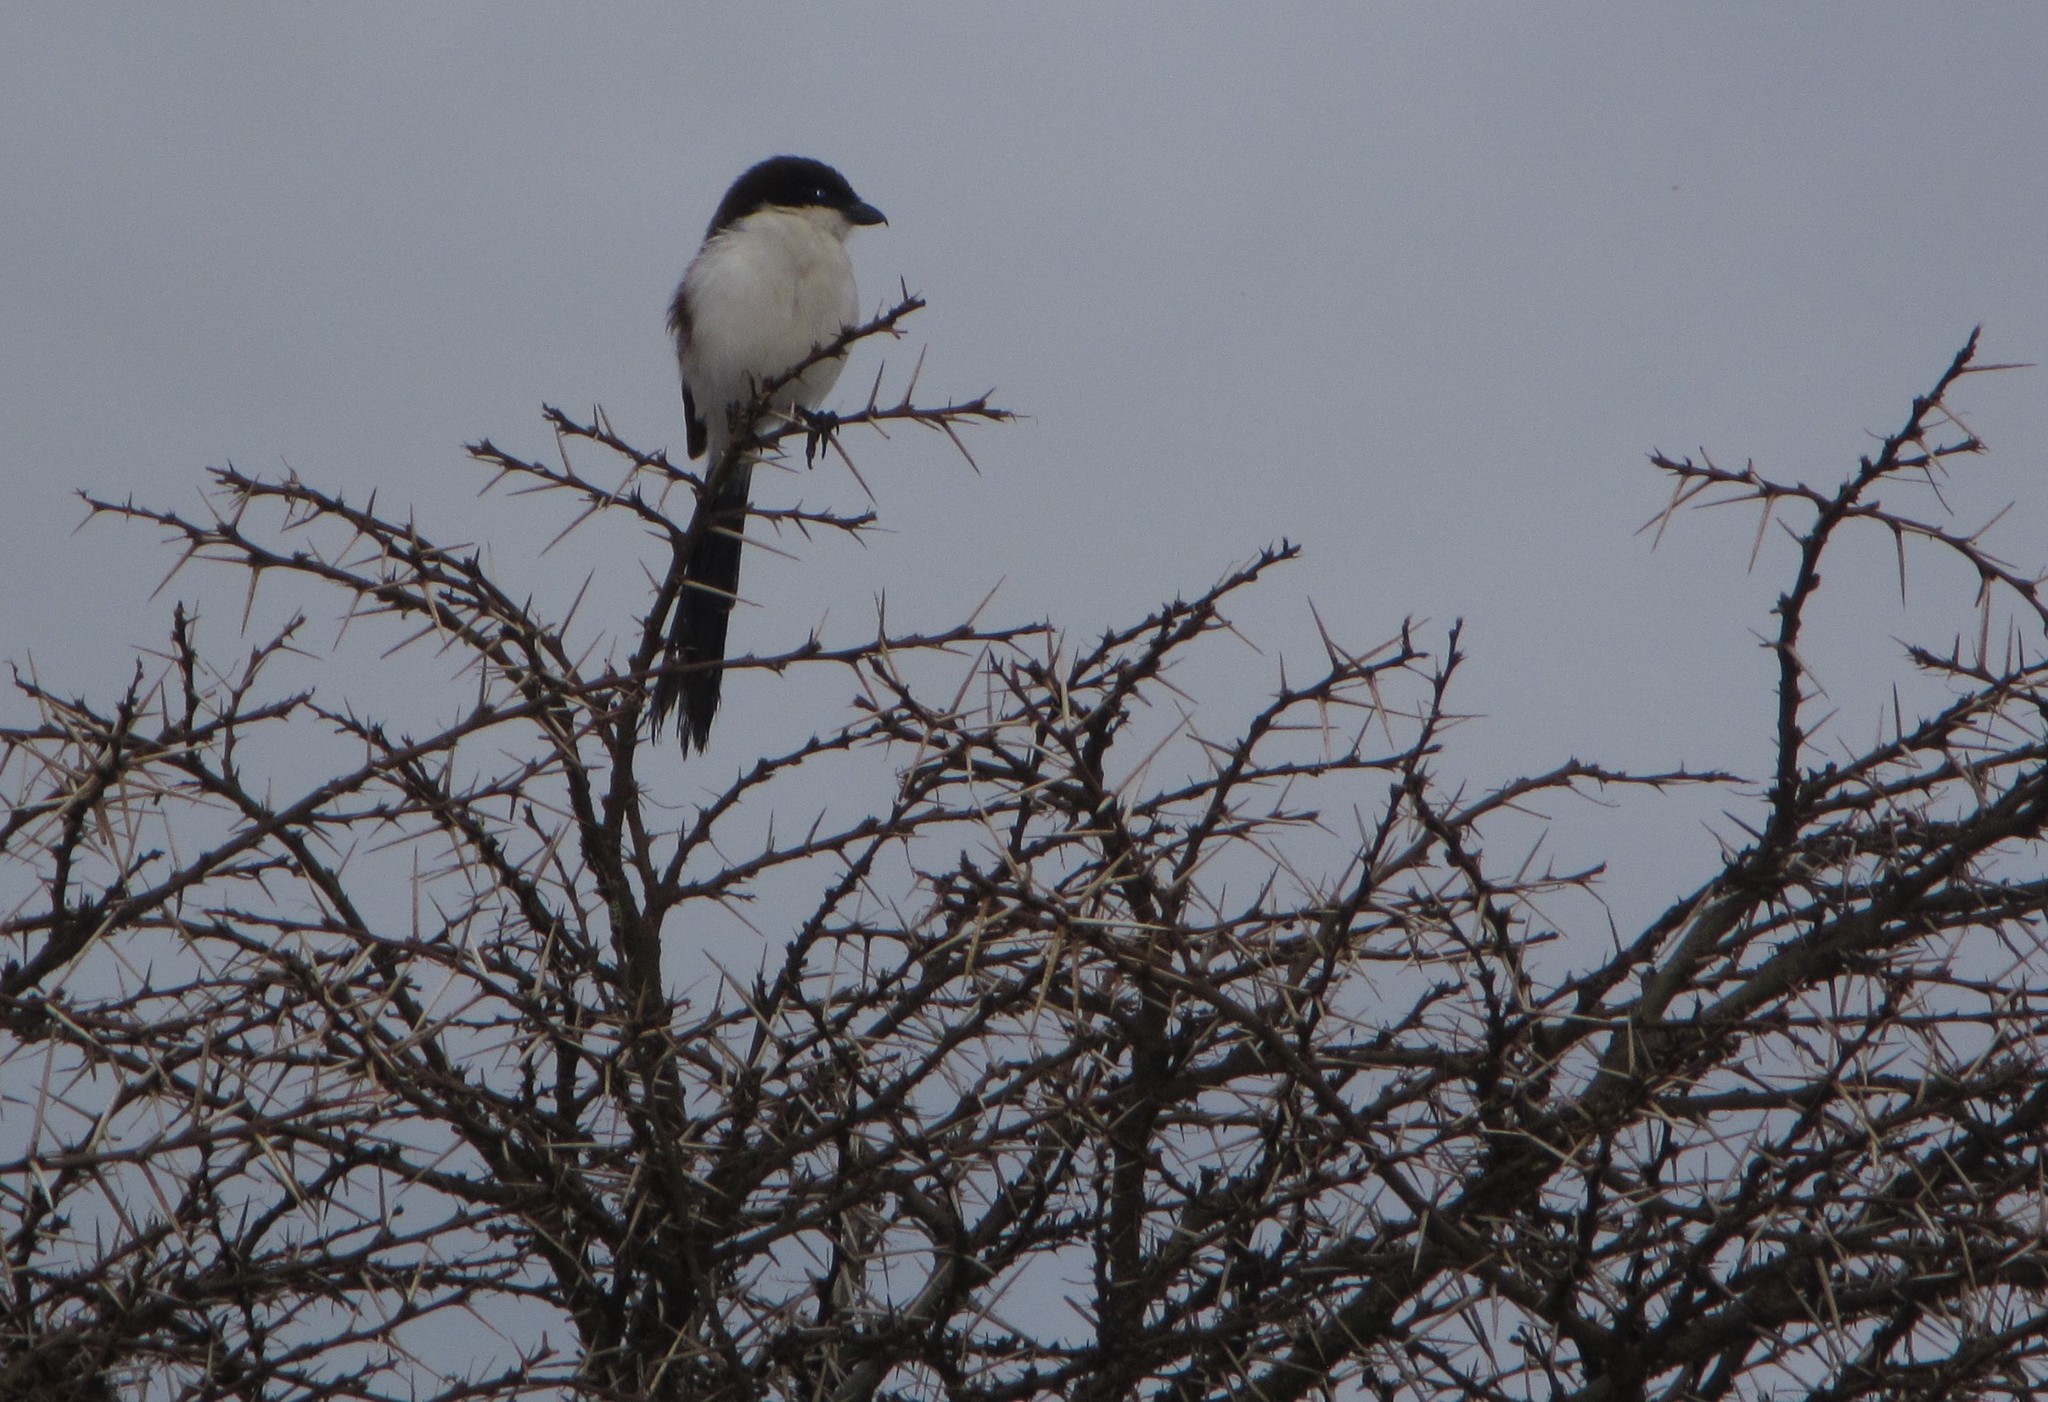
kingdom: Animalia
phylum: Chordata
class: Aves
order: Passeriformes
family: Laniidae
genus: Lanius
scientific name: Lanius cabanisi
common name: Long-tailed fiscal
